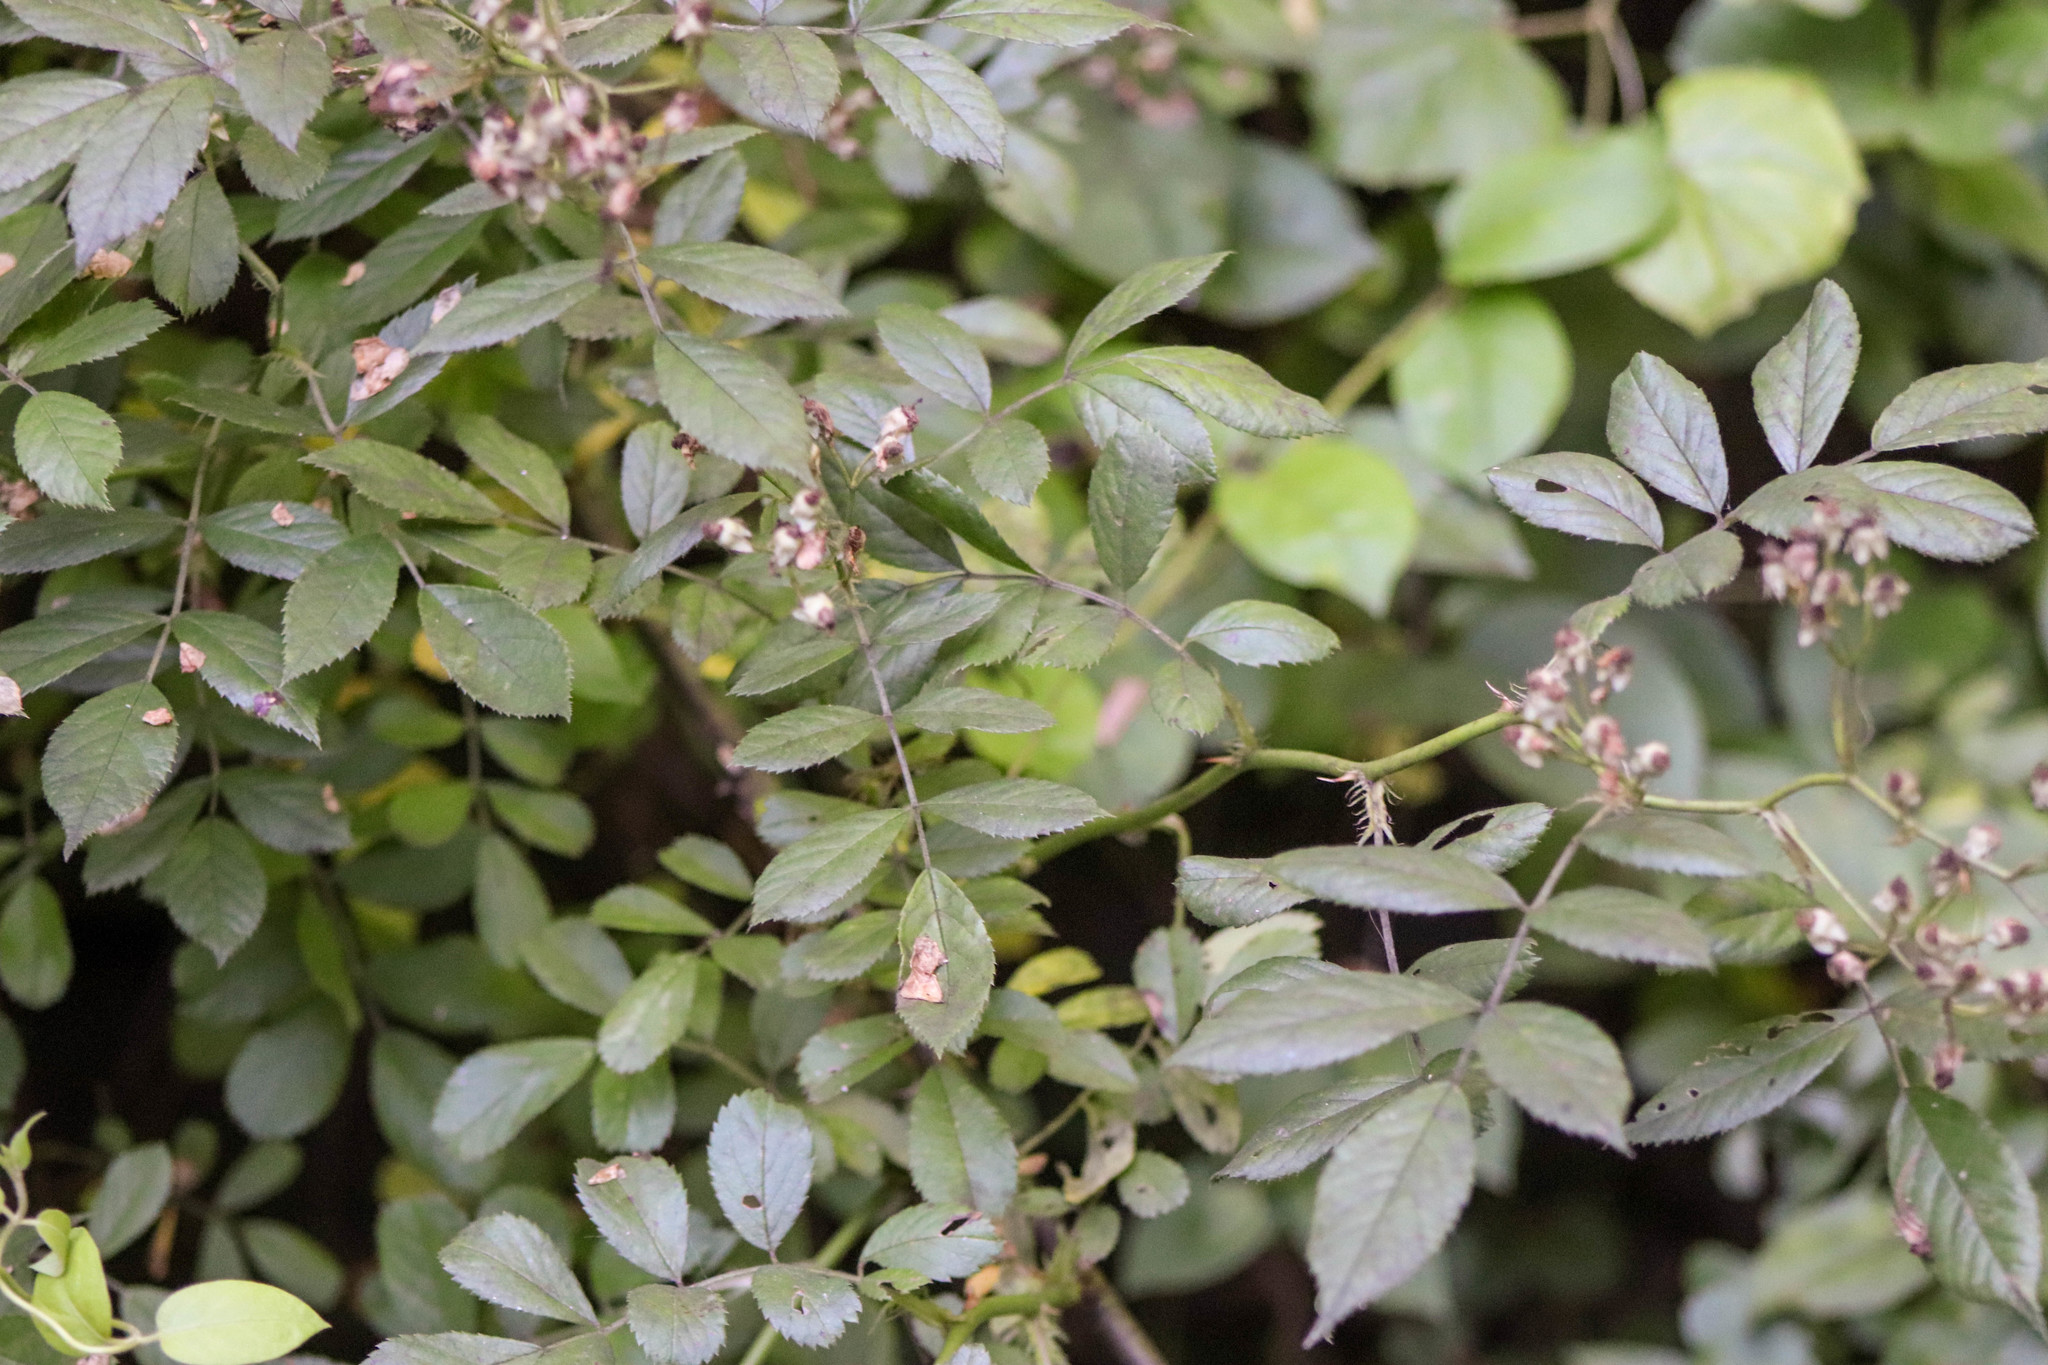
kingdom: Plantae
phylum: Tracheophyta
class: Magnoliopsida
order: Rosales
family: Rosaceae
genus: Rosa
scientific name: Rosa multiflora
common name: Multiflora rose
